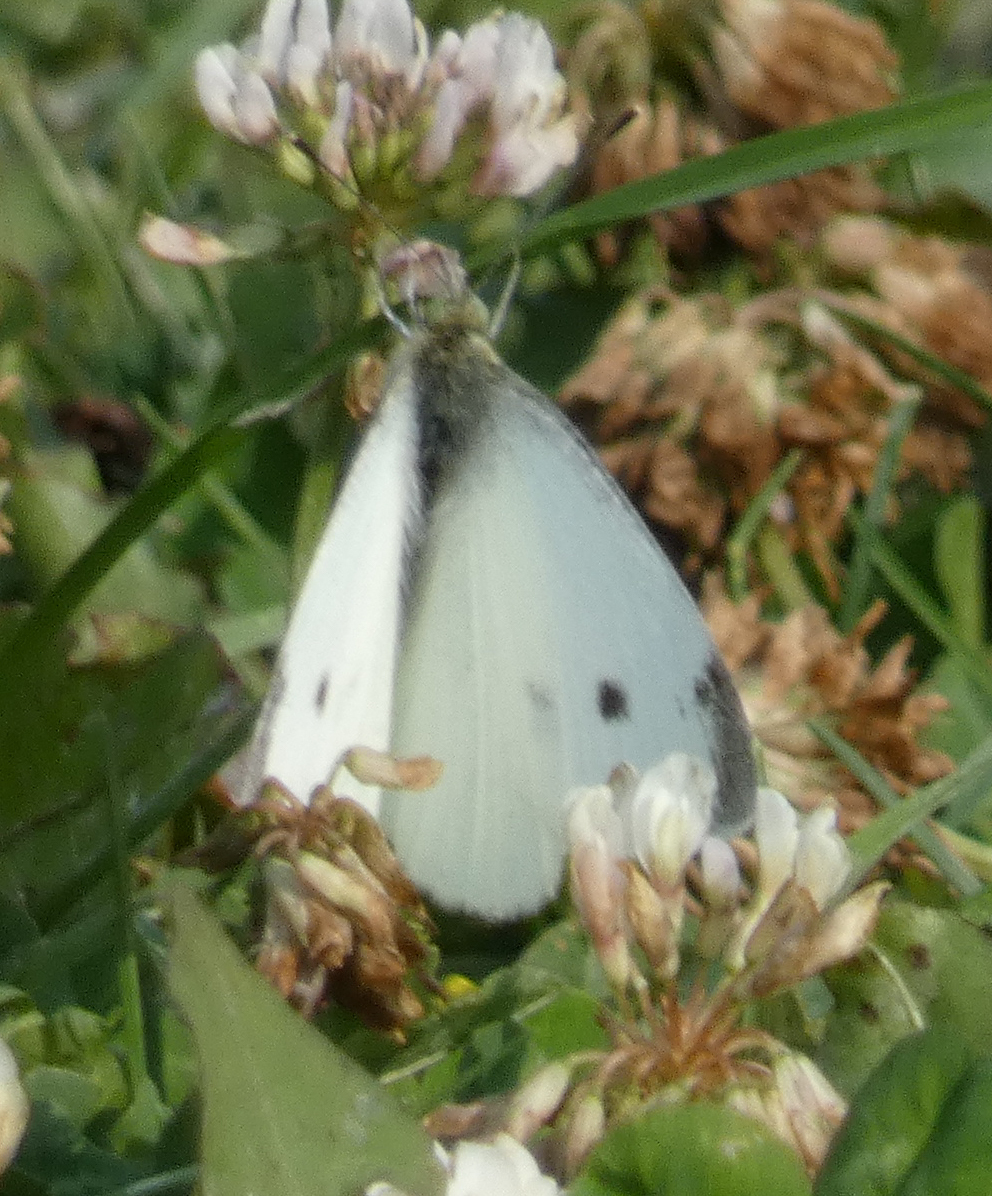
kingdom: Animalia
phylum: Arthropoda
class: Insecta
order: Lepidoptera
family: Pieridae
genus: Pieris
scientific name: Pieris rapae
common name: Small white
